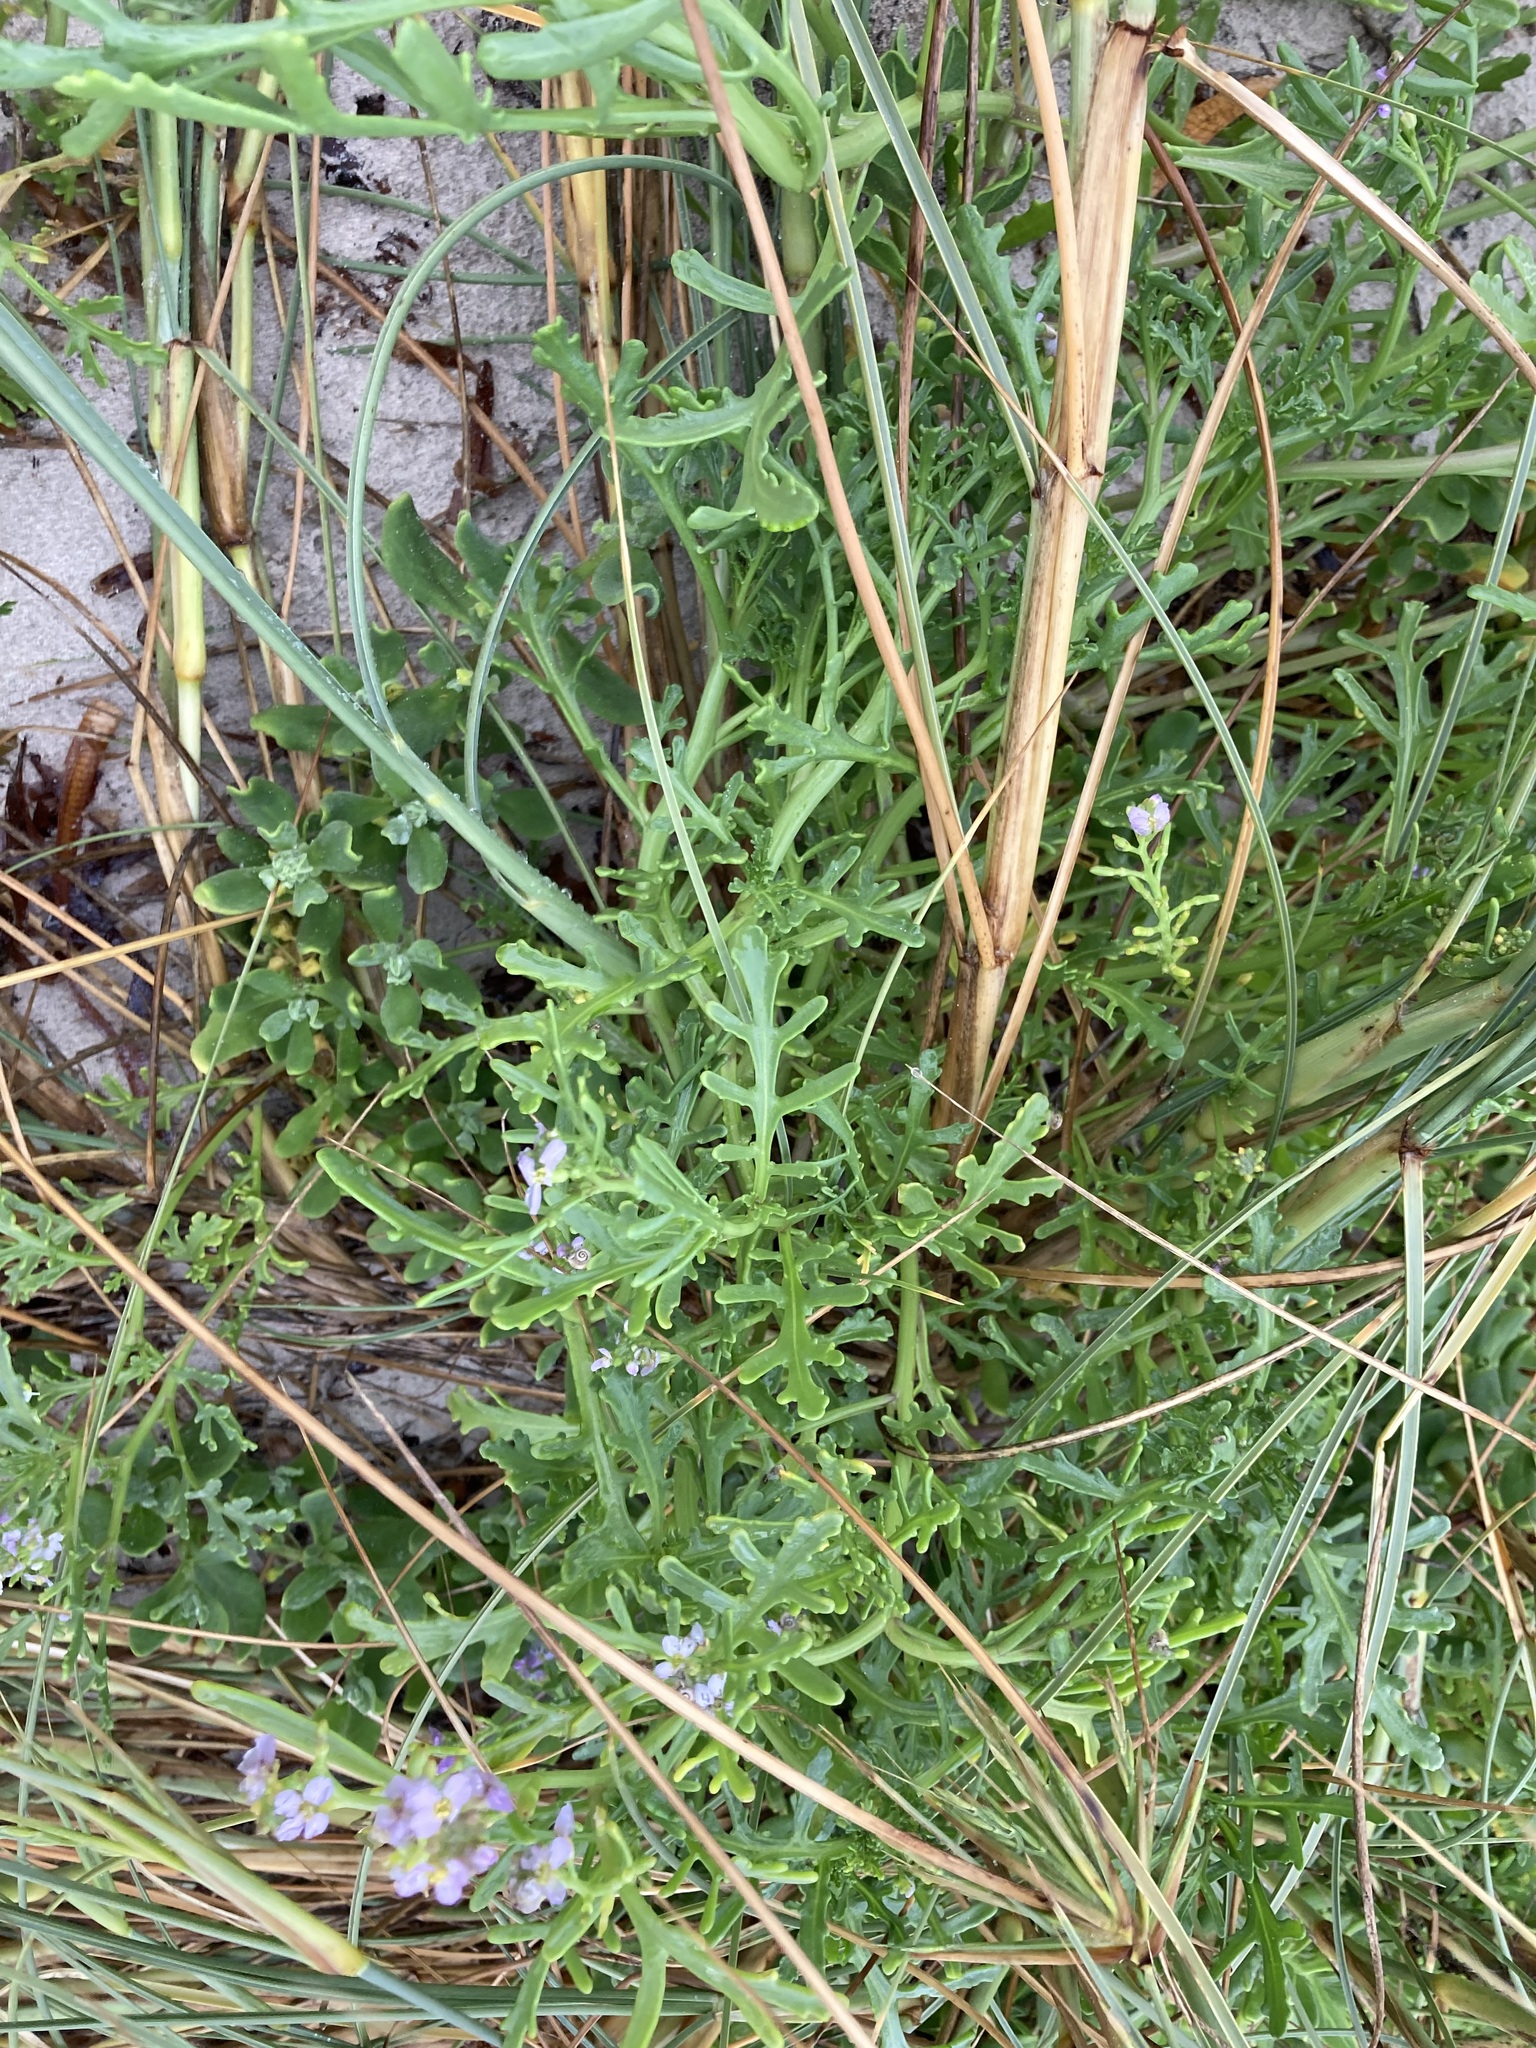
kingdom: Plantae
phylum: Tracheophyta
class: Magnoliopsida
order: Brassicales
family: Brassicaceae
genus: Cakile
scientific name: Cakile maritima
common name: Sea rocket
